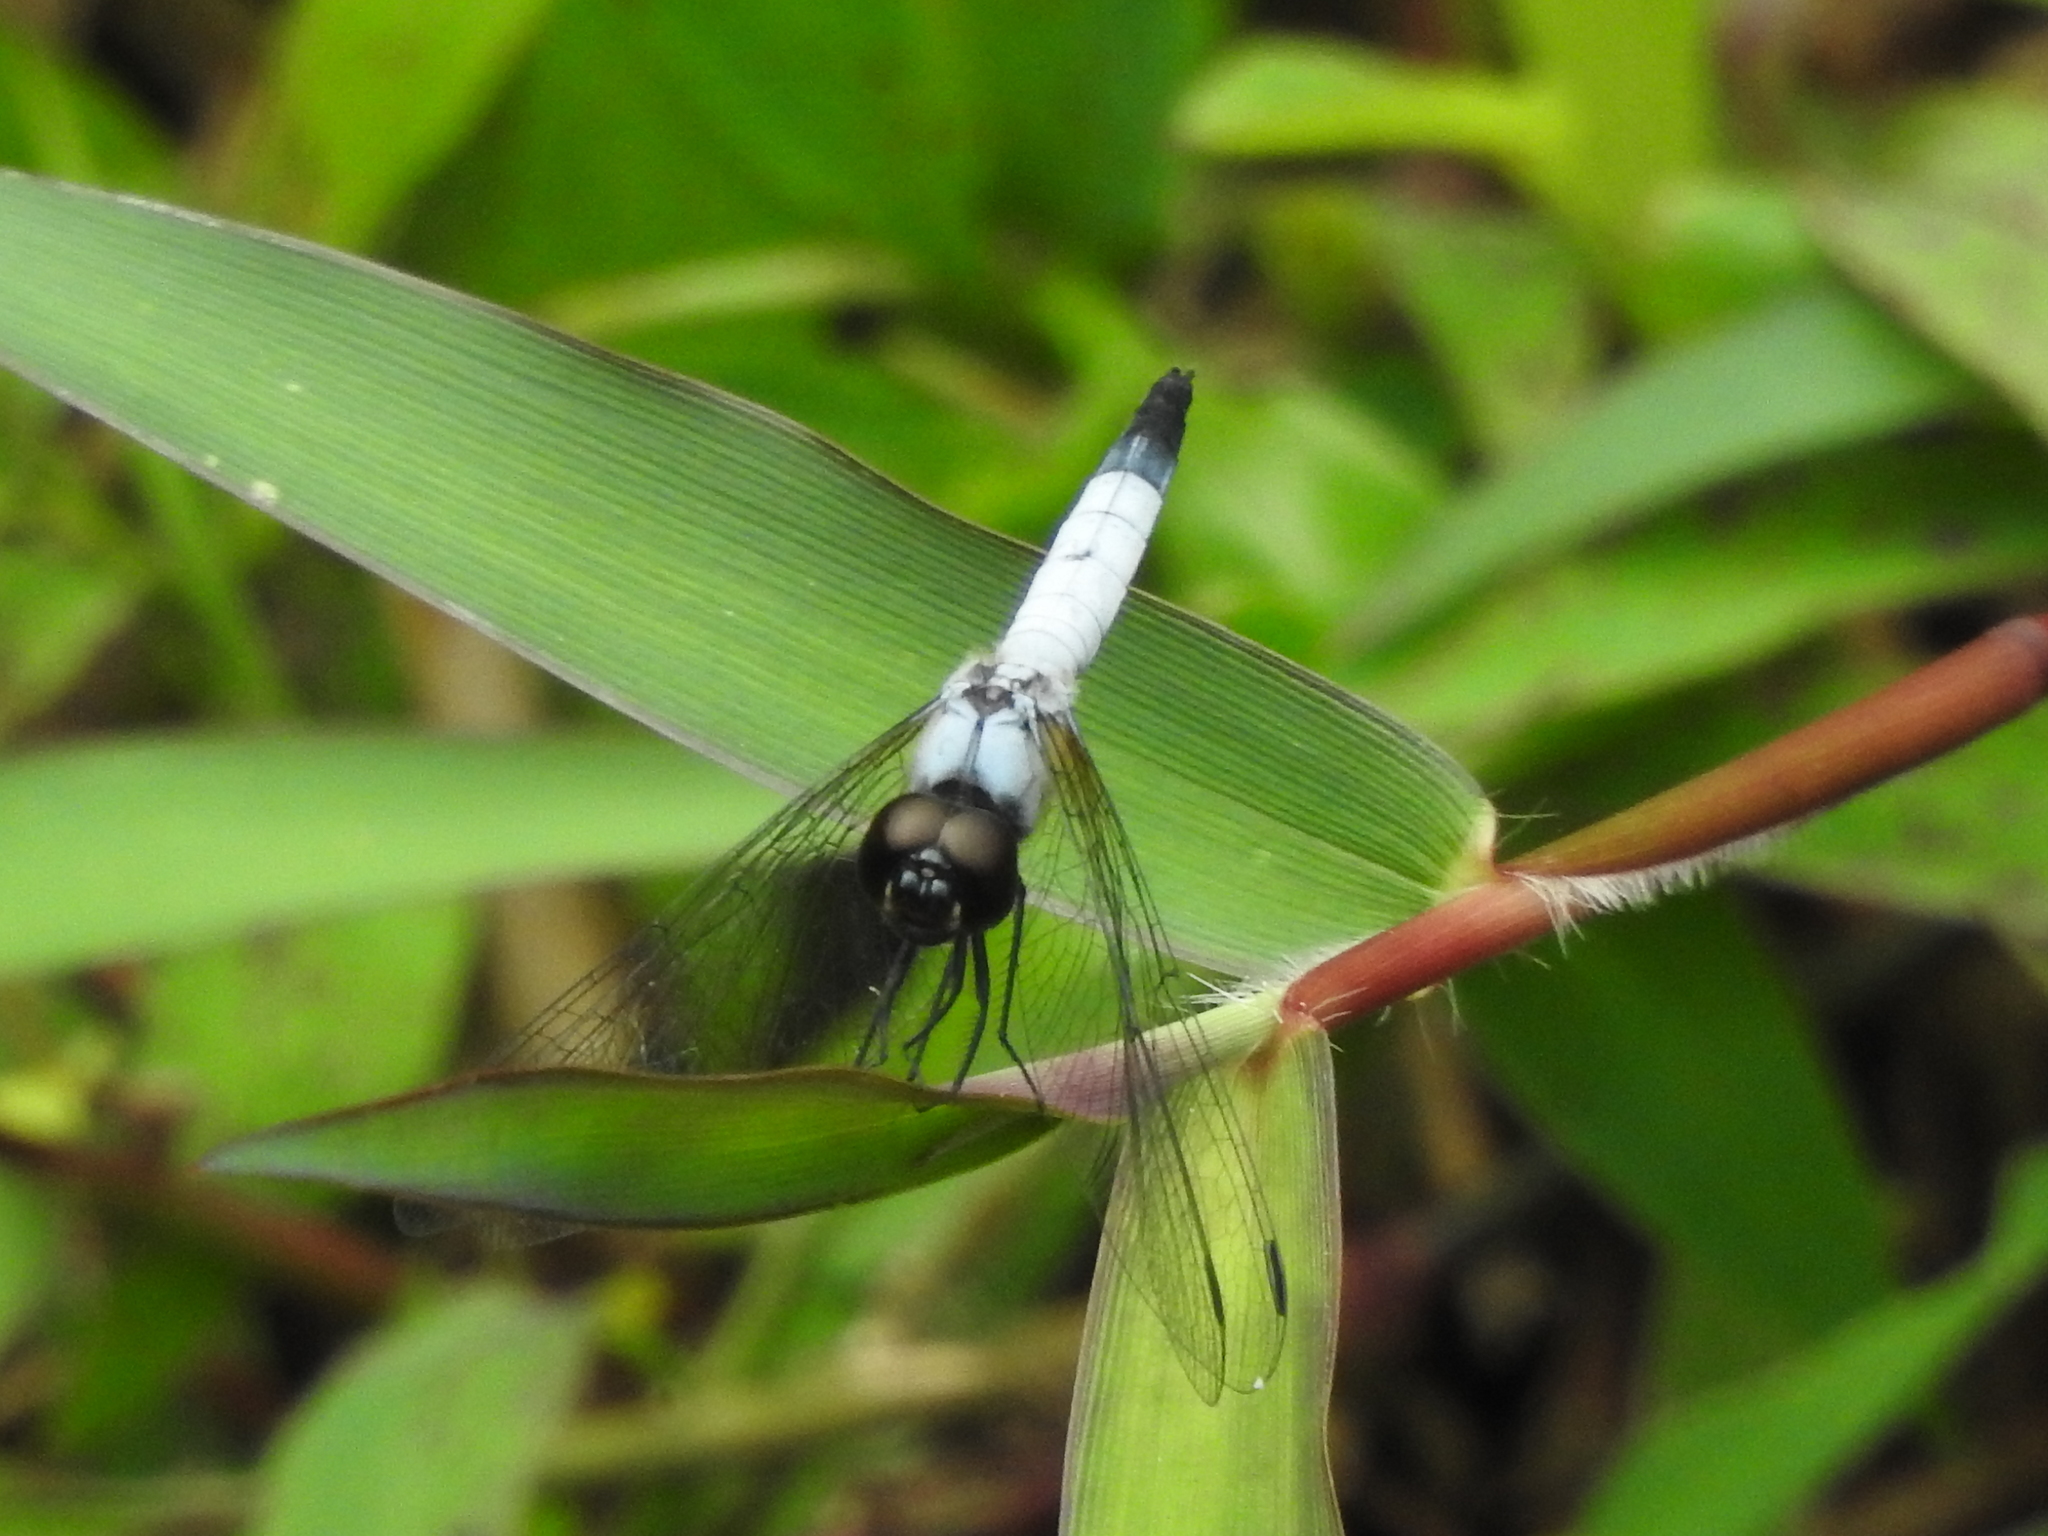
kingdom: Animalia
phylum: Arthropoda
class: Insecta
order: Odonata
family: Libellulidae
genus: Aethriamanta
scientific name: Aethriamanta gracilis
